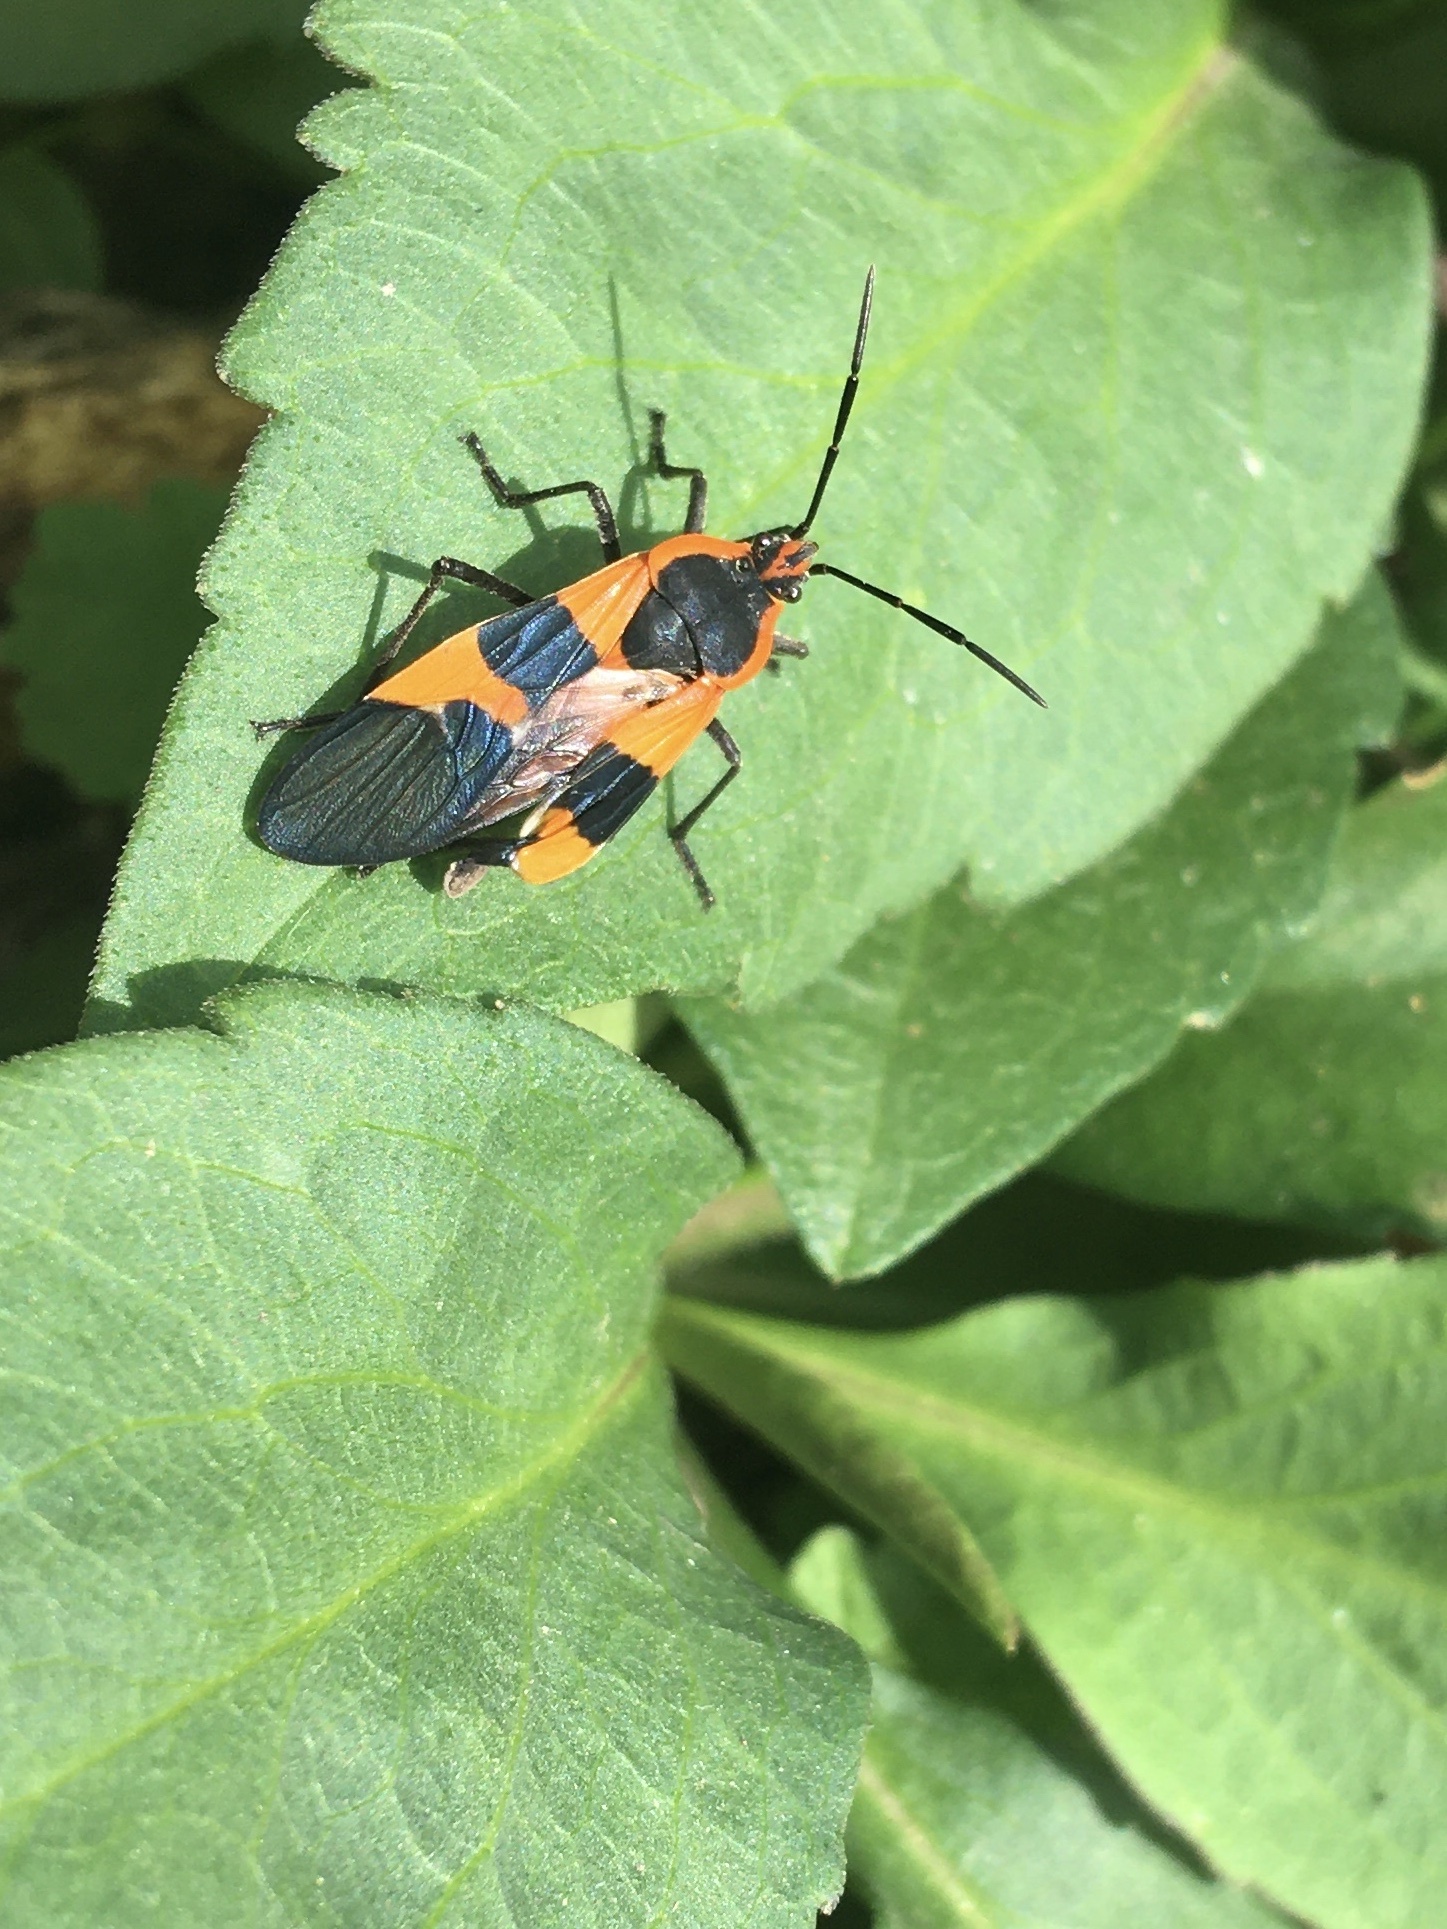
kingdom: Animalia
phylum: Arthropoda
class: Insecta
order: Hemiptera
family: Lygaeidae
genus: Oncopeltus
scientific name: Oncopeltus fasciatus
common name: Large milkweed bug
